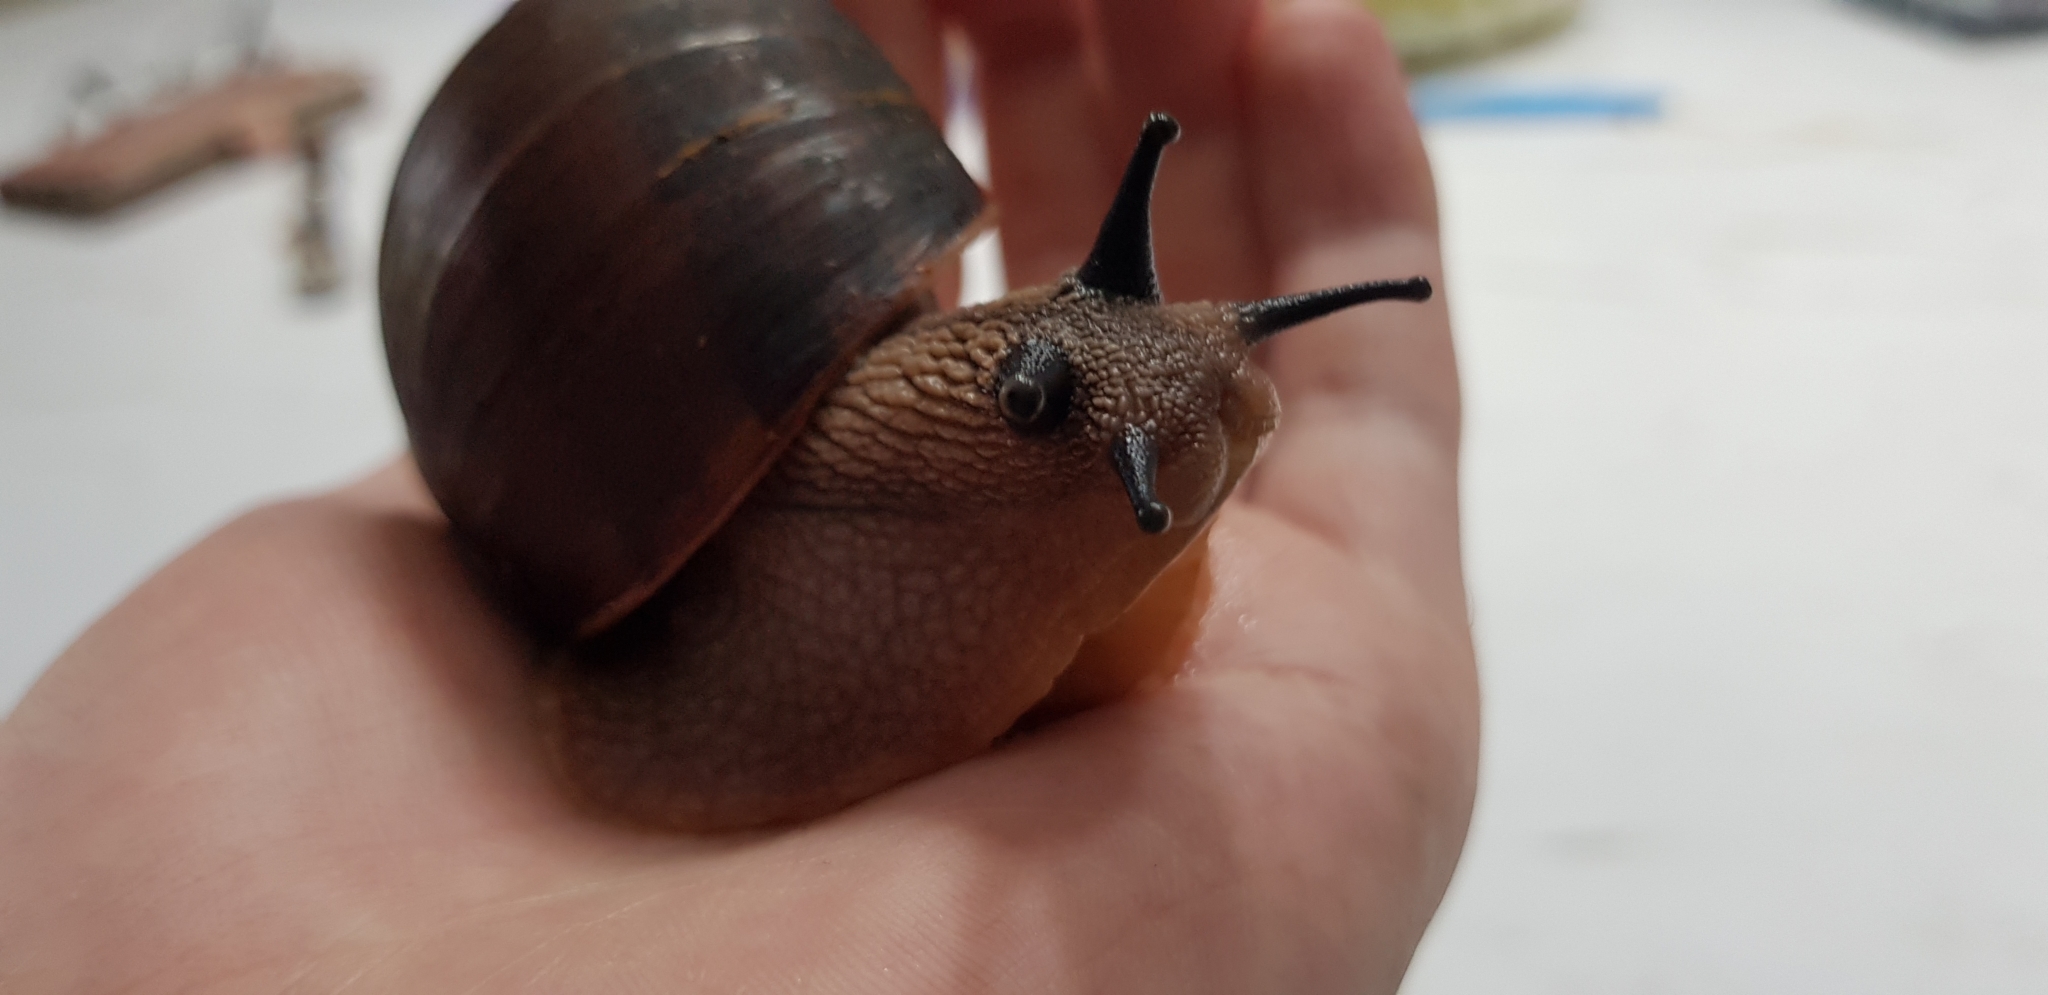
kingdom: Animalia
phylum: Mollusca
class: Gastropoda
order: Stylommatophora
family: Caryodidae
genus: Hedleyella
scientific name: Hedleyella falconeri
